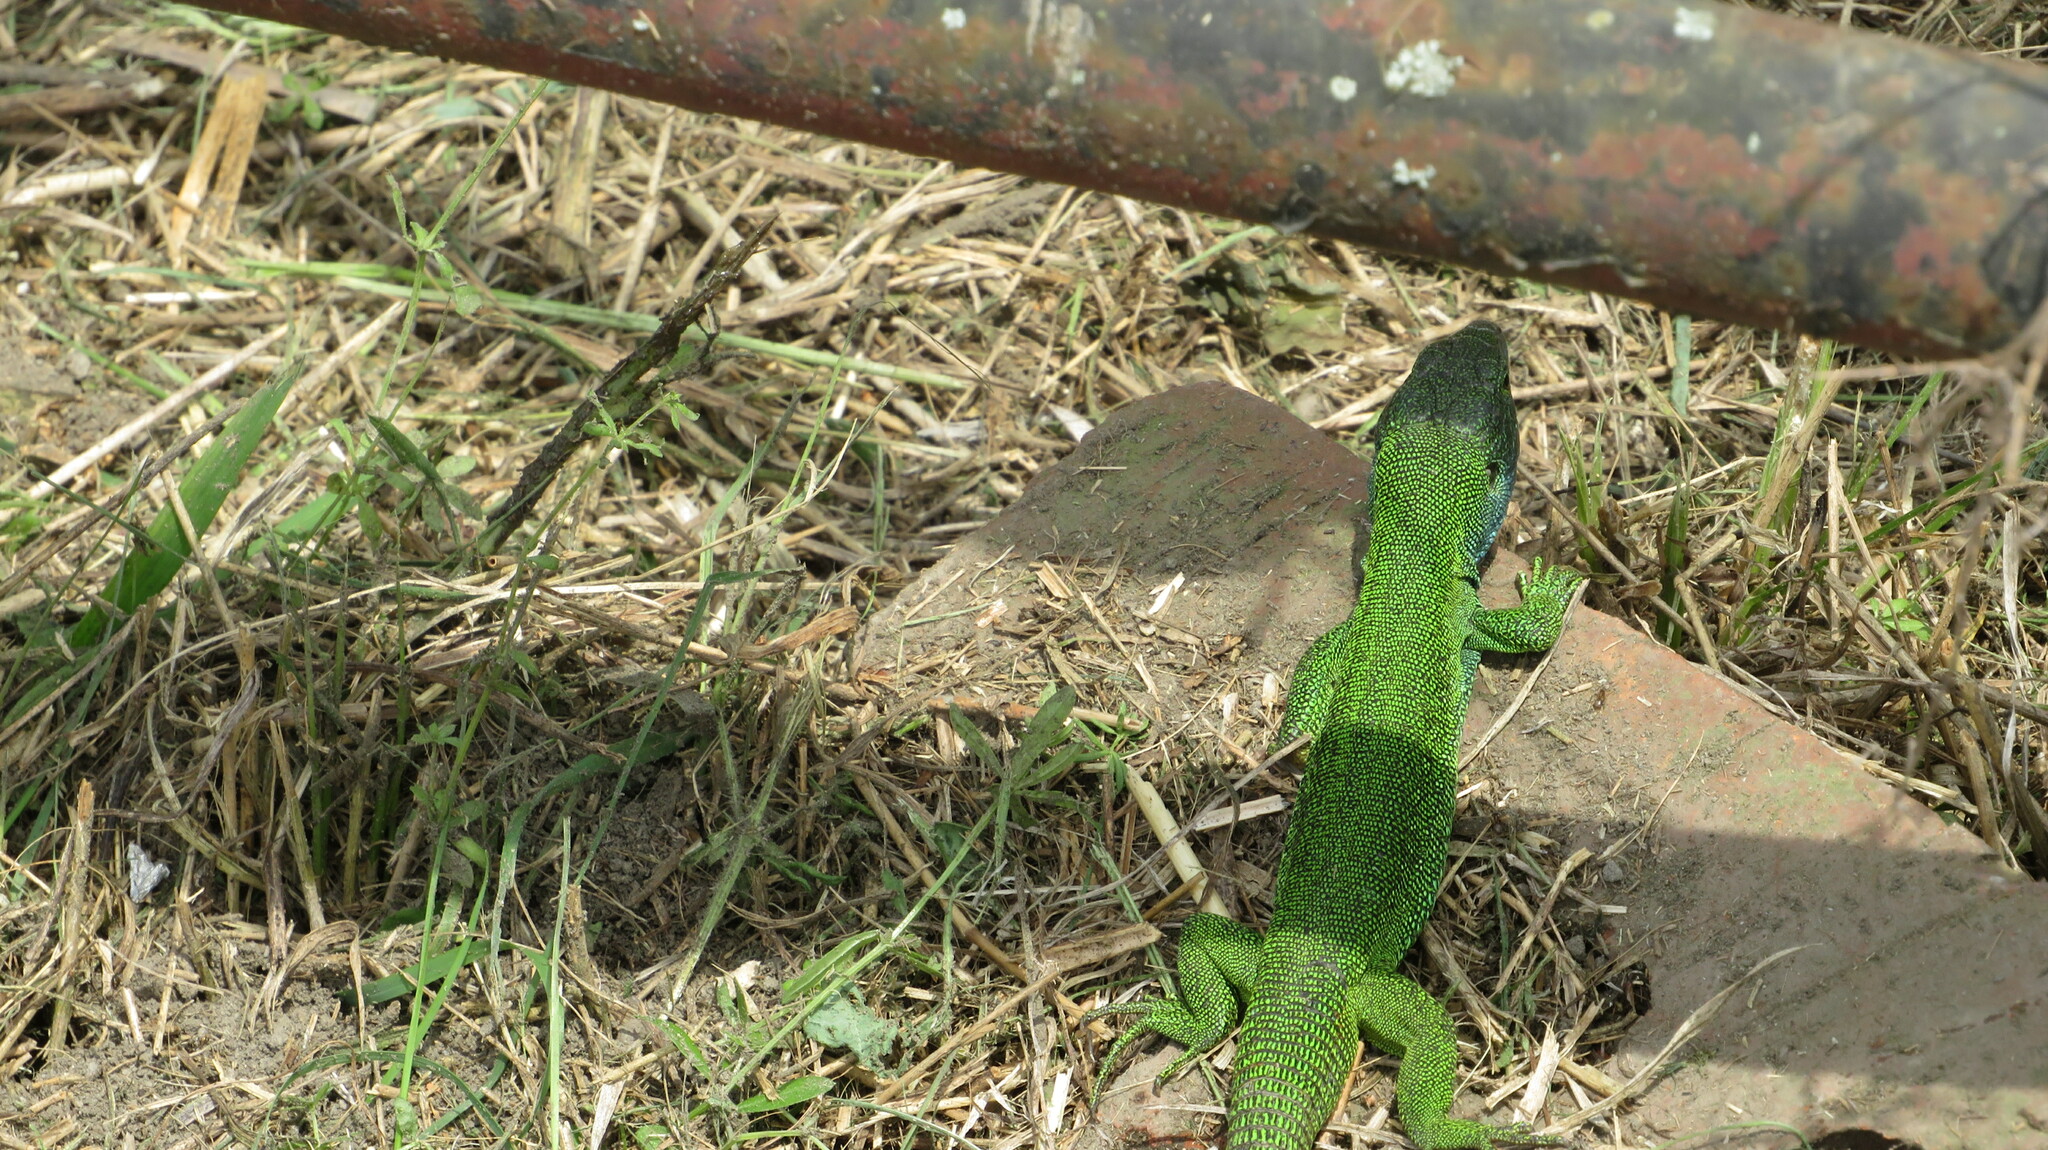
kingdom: Animalia
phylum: Chordata
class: Squamata
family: Lacertidae
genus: Lacerta
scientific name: Lacerta agilis
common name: Sand lizard
